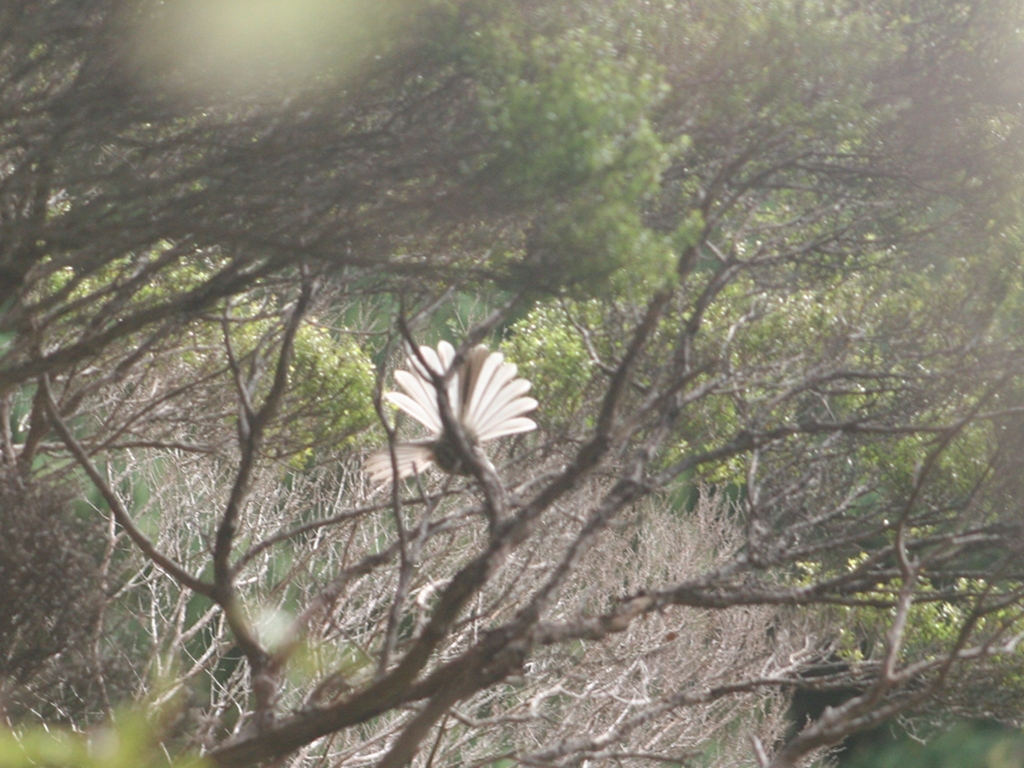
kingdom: Animalia
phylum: Chordata
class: Aves
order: Passeriformes
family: Rhipiduridae
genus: Rhipidura
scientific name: Rhipidura fuliginosa
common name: New zealand fantail
